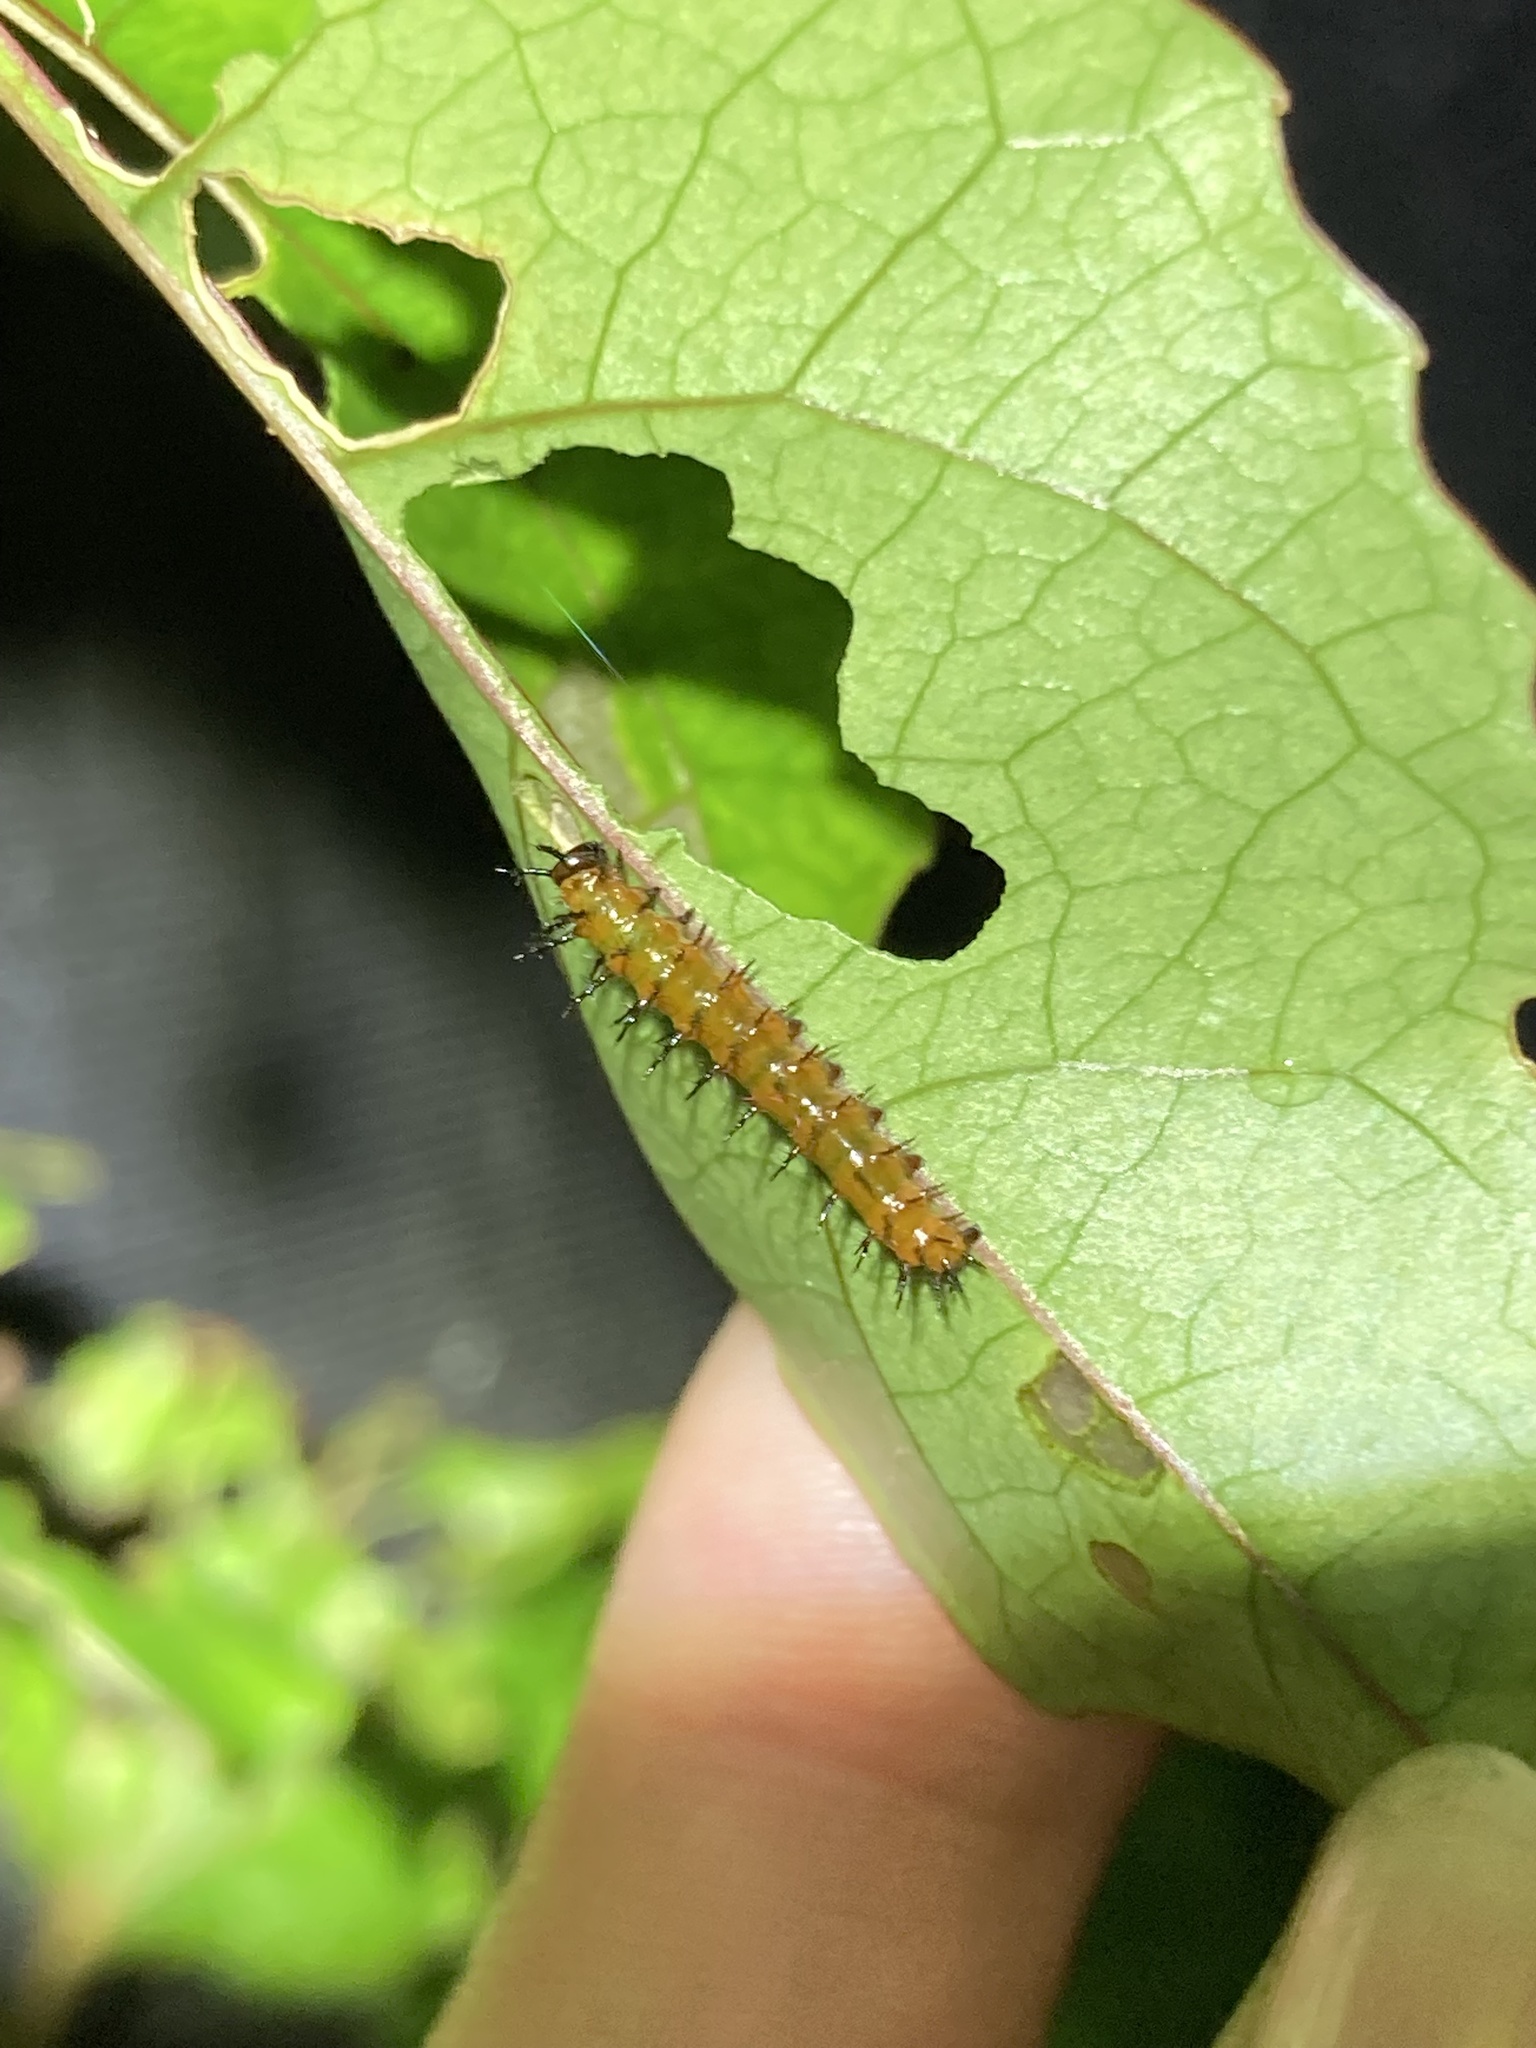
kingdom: Animalia
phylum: Arthropoda
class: Insecta
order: Lepidoptera
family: Nymphalidae
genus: Dione
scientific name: Dione vanillae
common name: Gulf fritillary
